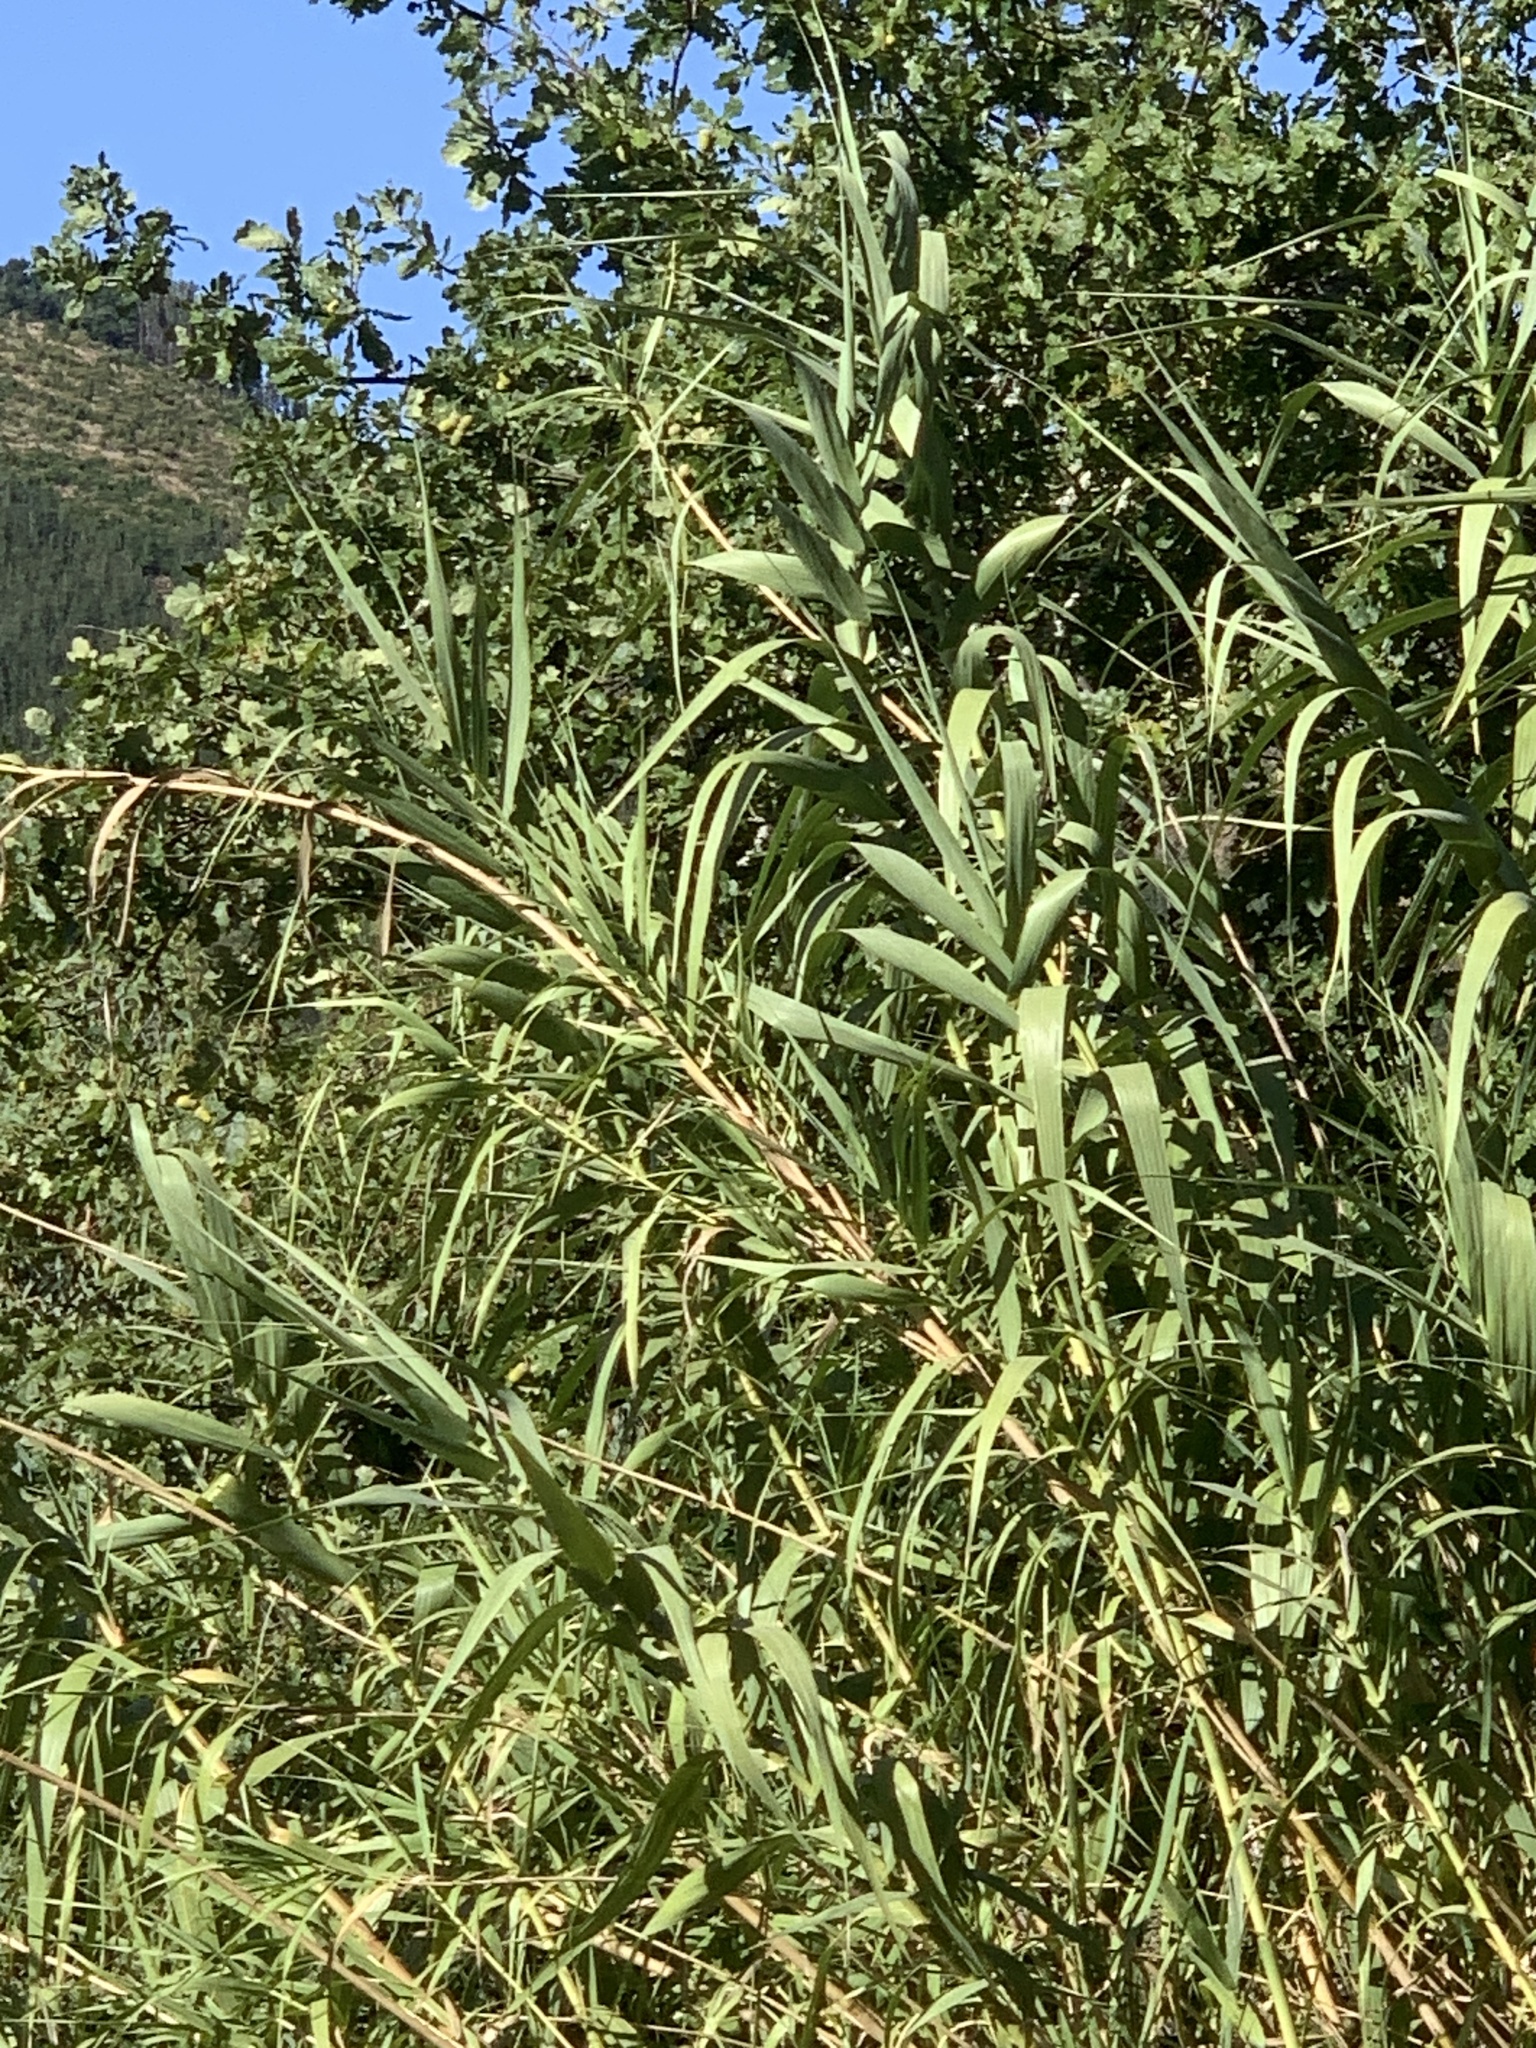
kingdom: Plantae
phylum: Tracheophyta
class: Liliopsida
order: Poales
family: Poaceae
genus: Arundo
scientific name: Arundo donax
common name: Giant reed
